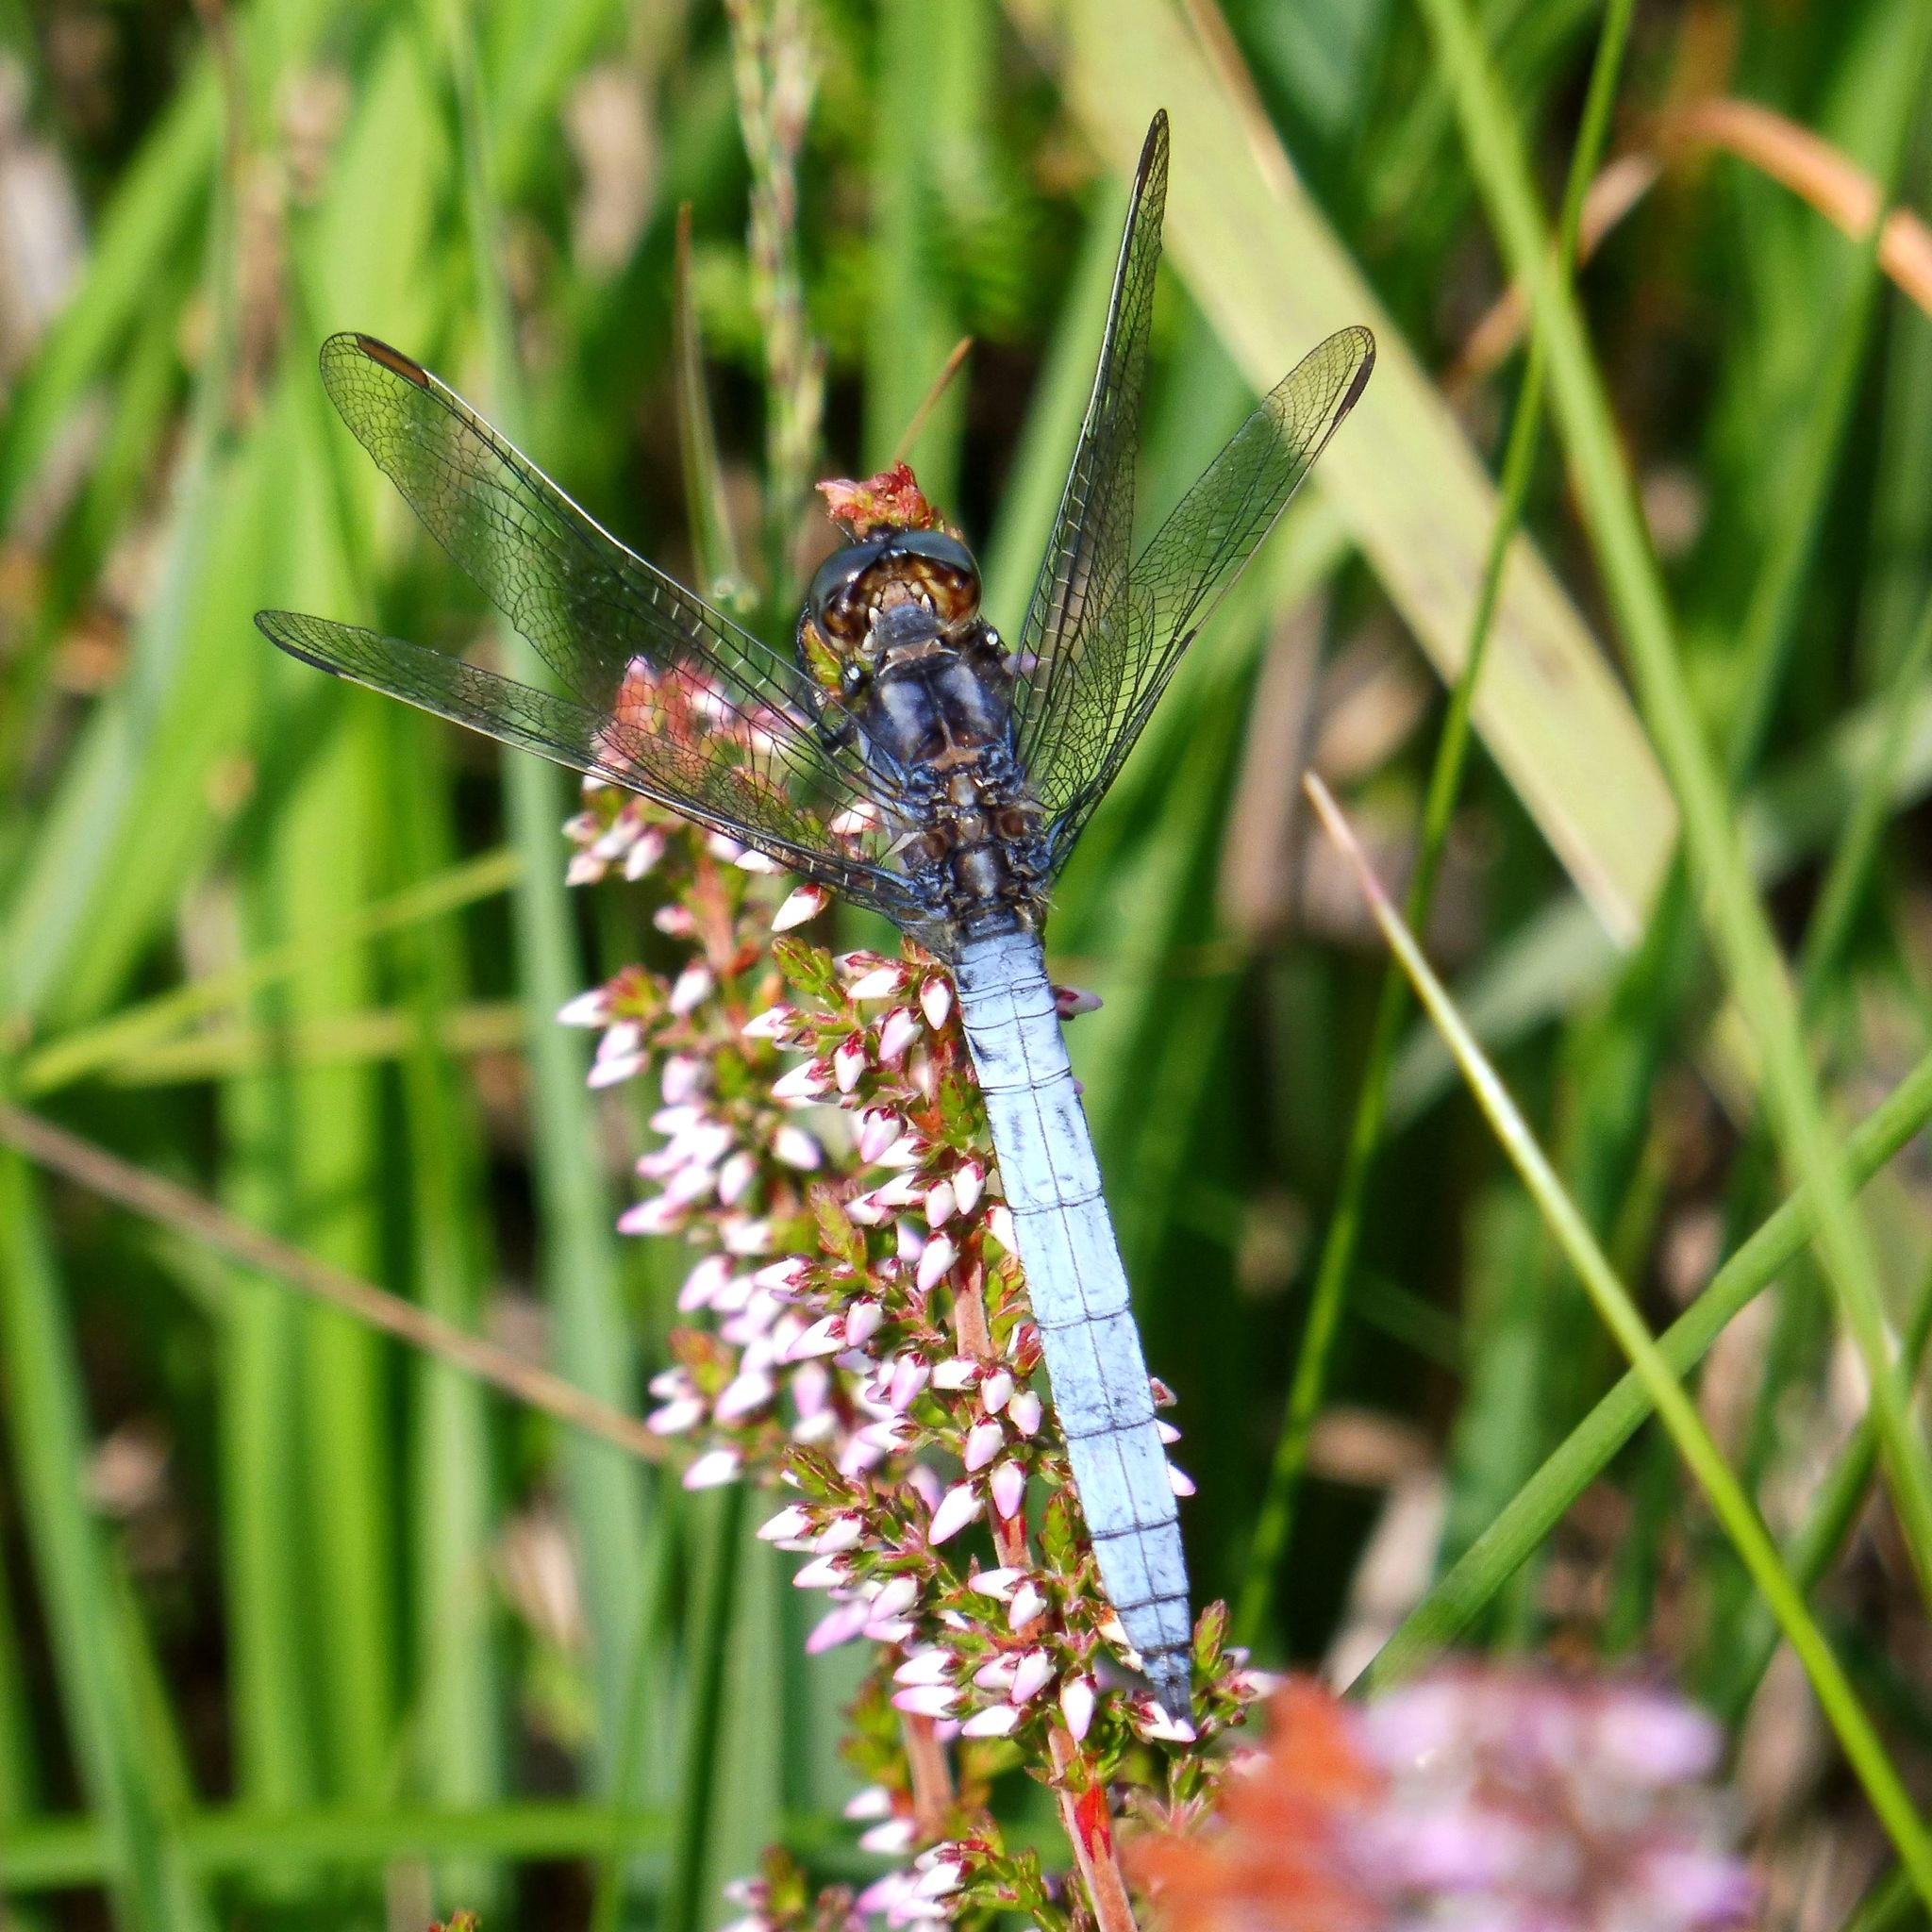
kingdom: Animalia
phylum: Arthropoda
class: Insecta
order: Odonata
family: Libellulidae
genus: Orthetrum
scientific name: Orthetrum coerulescens
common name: Keeled skimmer
